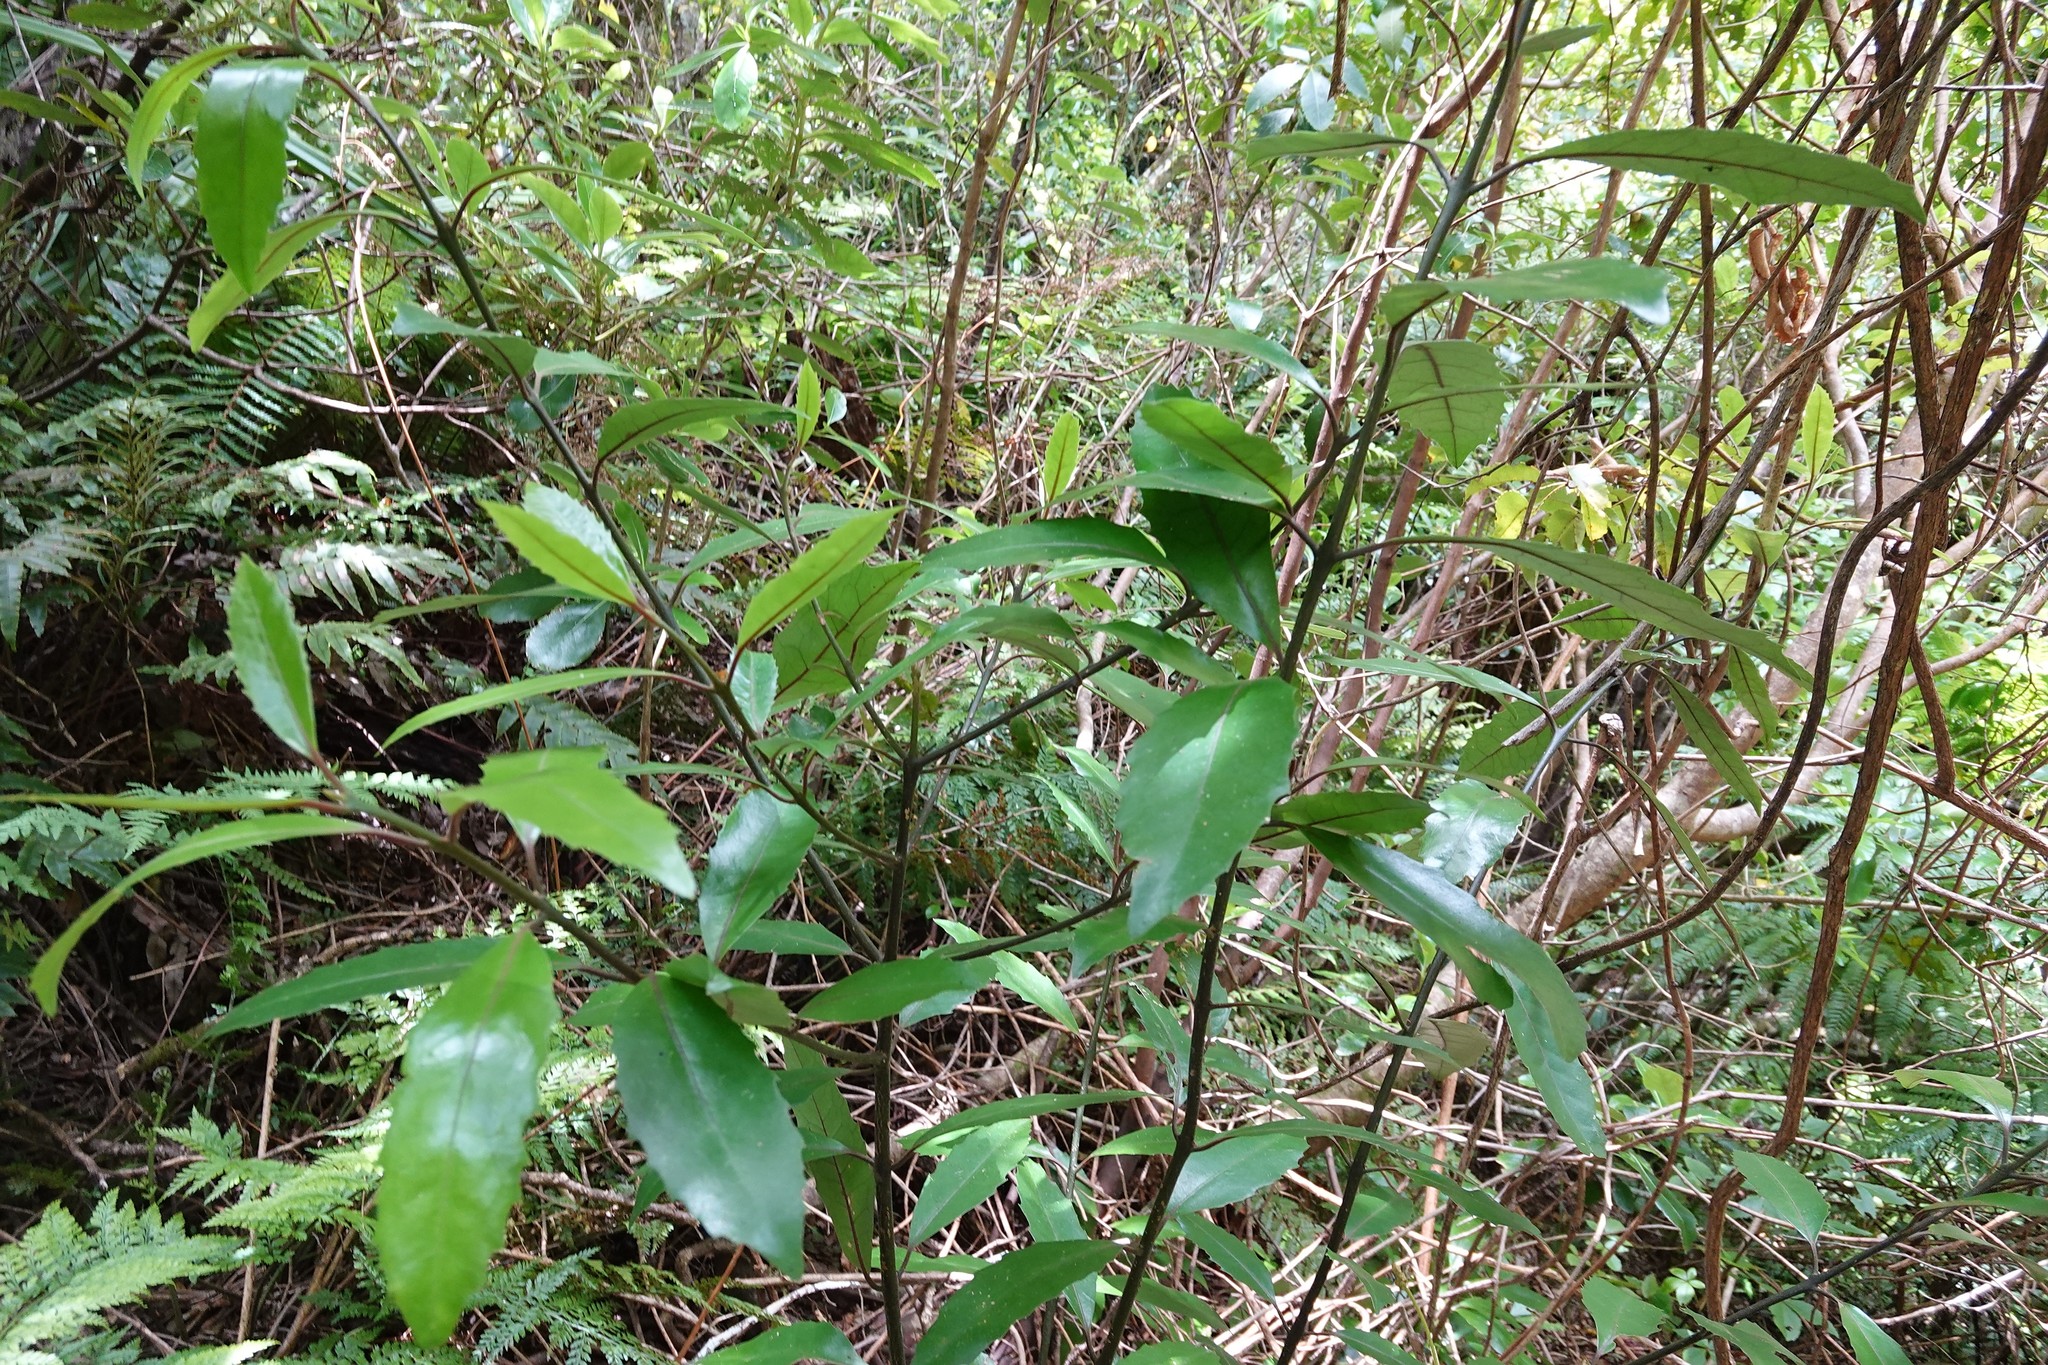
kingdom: Plantae
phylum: Tracheophyta
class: Magnoliopsida
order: Laurales
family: Monimiaceae
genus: Hedycarya
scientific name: Hedycarya arborea
